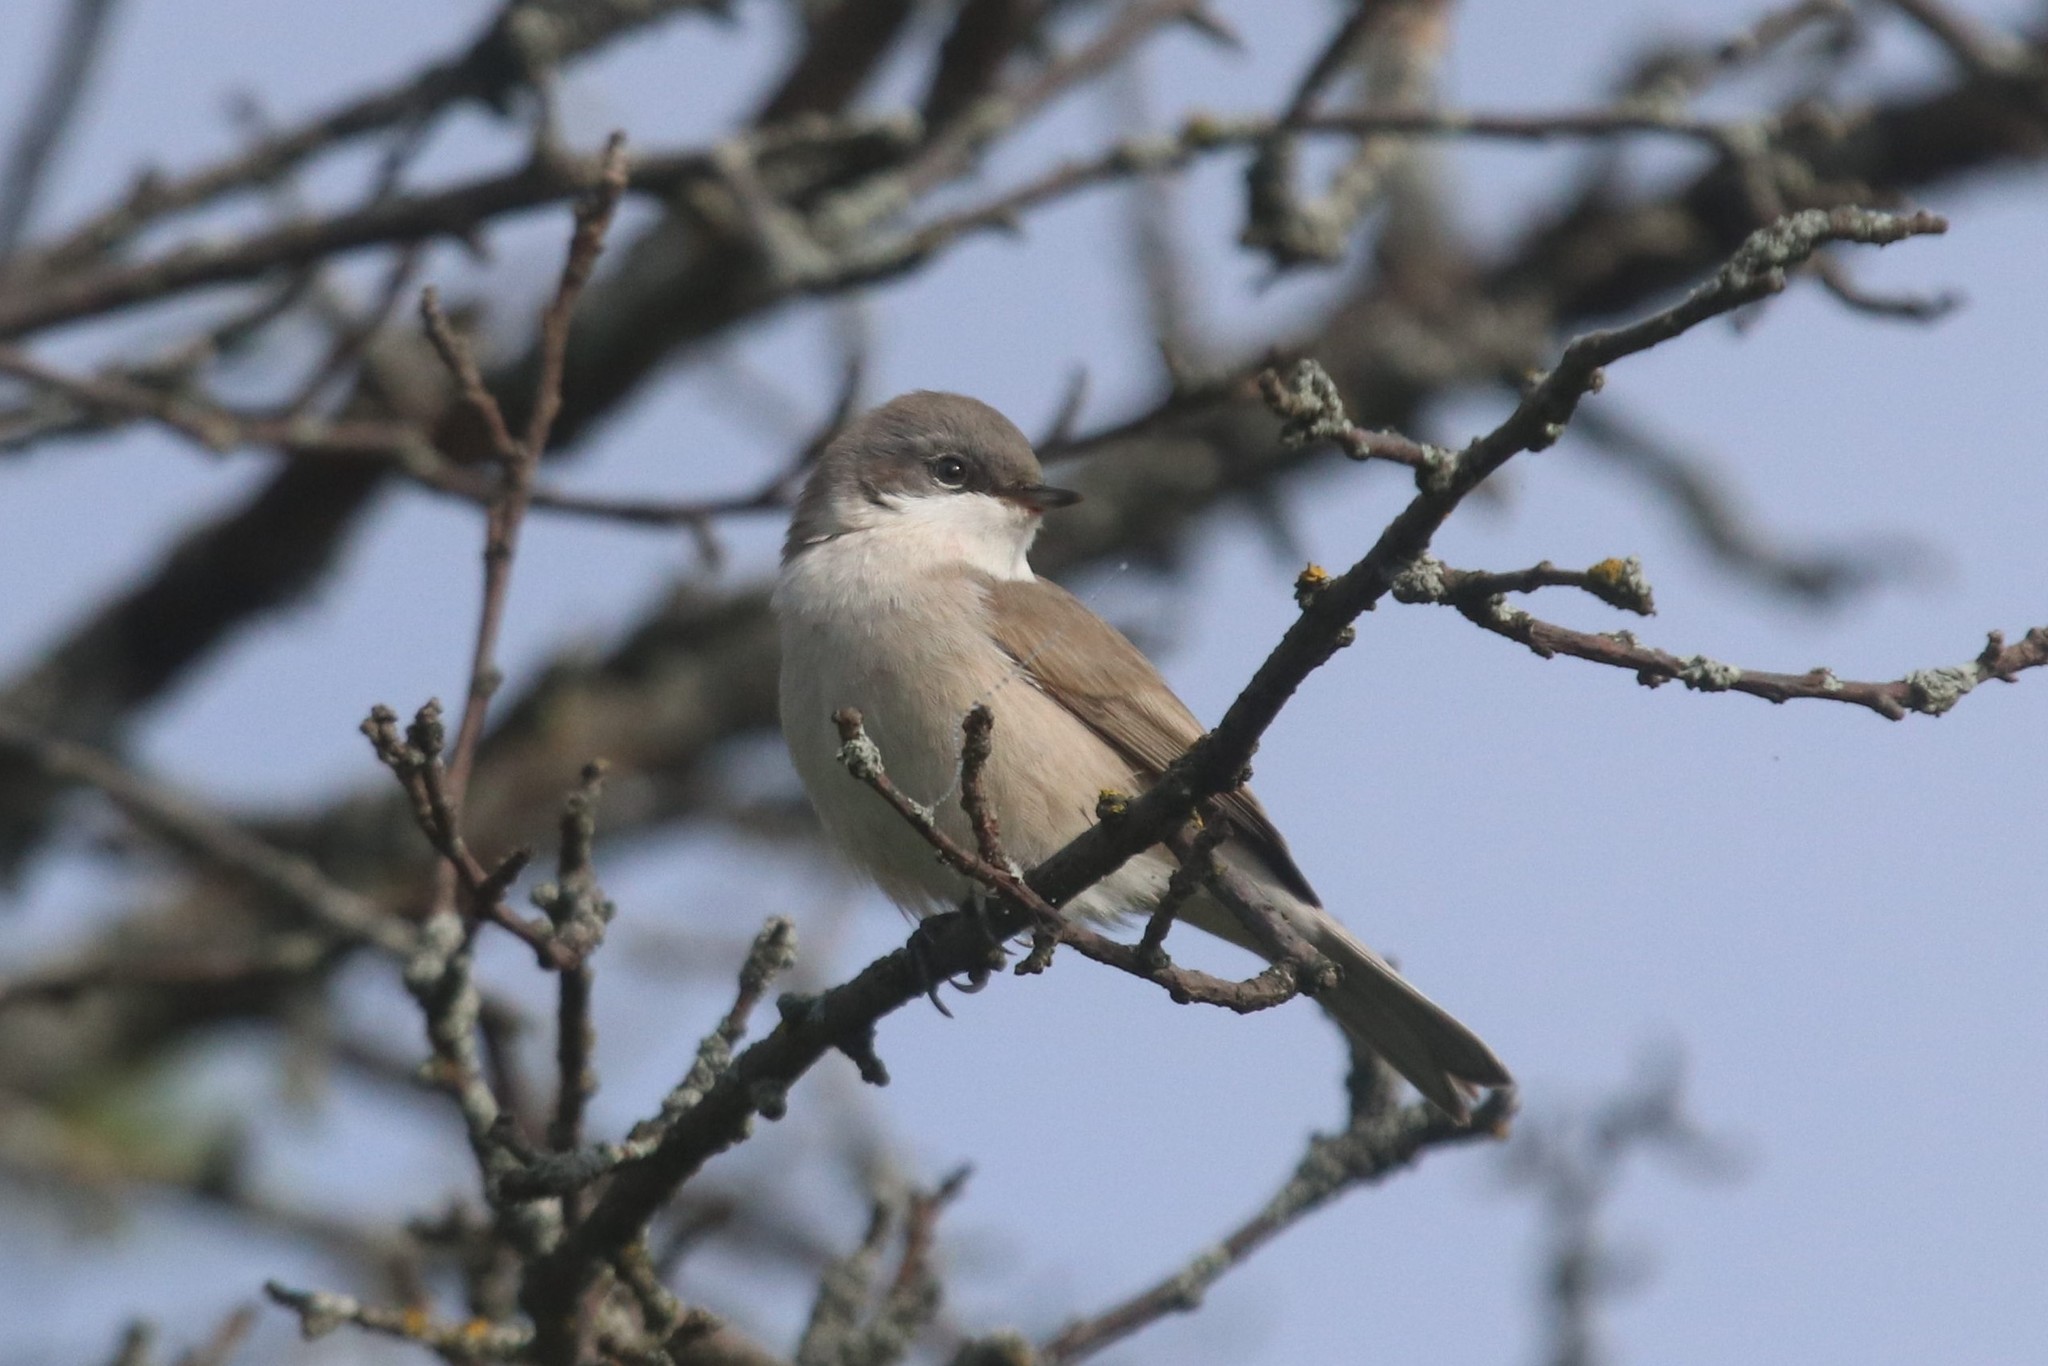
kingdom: Animalia
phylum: Chordata
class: Aves
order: Passeriformes
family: Sylviidae
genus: Sylvia
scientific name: Sylvia curruca
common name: Lesser whitethroat
